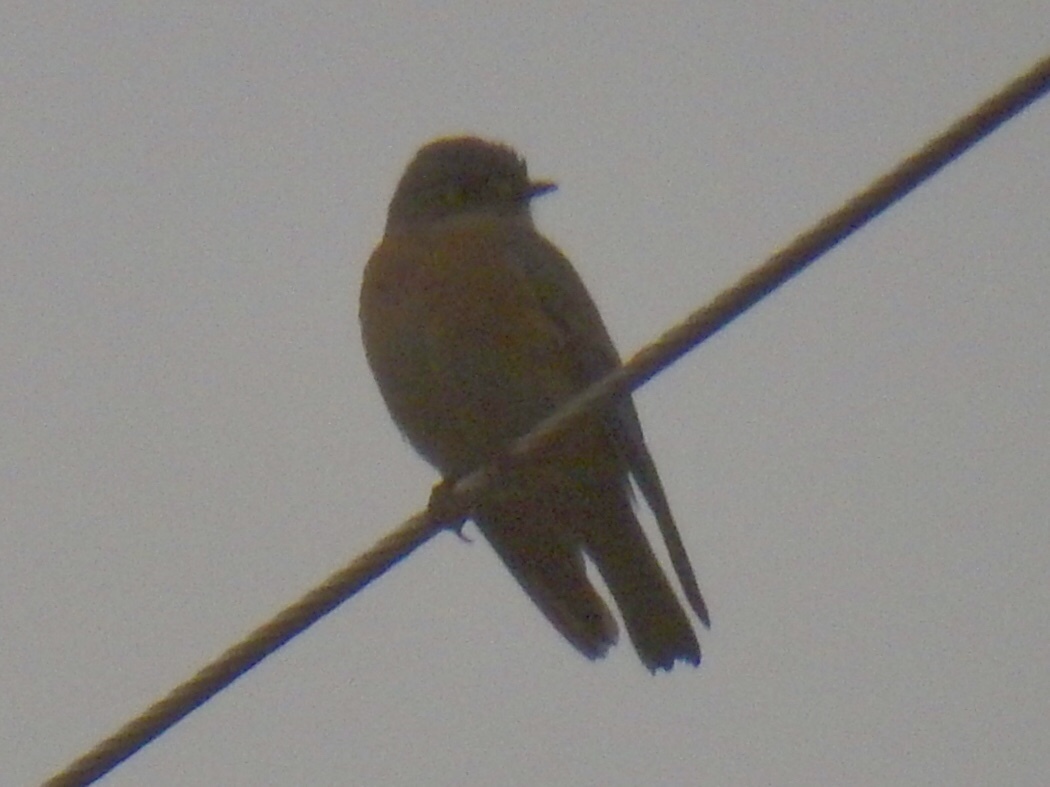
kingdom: Animalia
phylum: Chordata
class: Aves
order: Passeriformes
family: Turdidae
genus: Sialia
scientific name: Sialia mexicana
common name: Western bluebird
